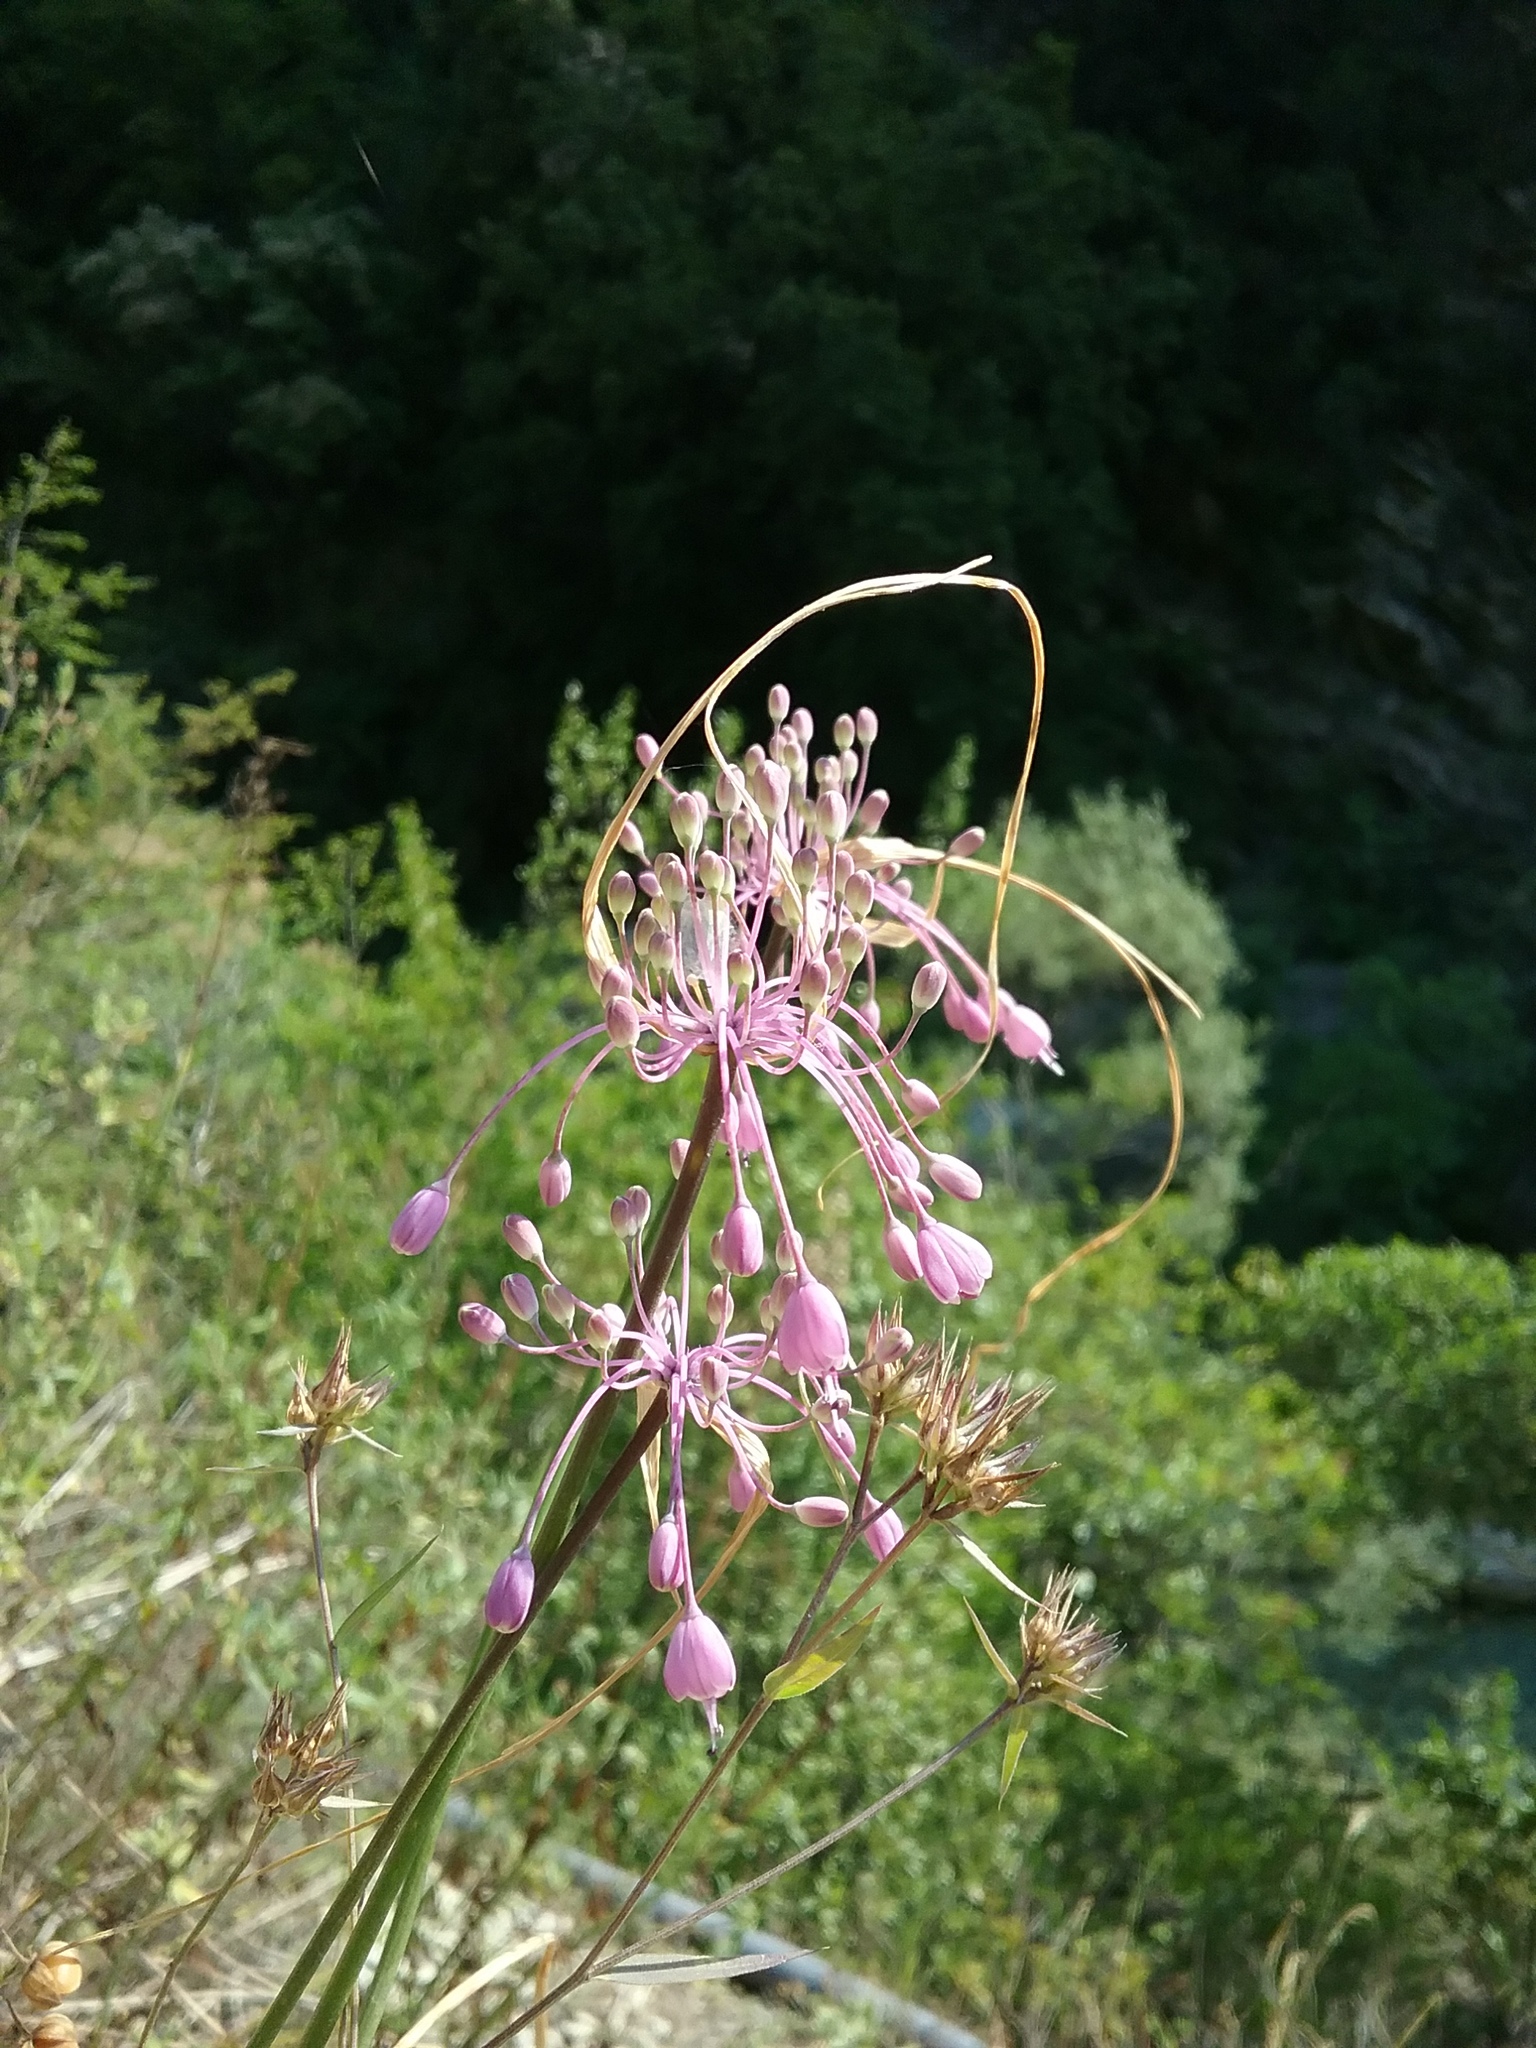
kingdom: Plantae
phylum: Tracheophyta
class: Liliopsida
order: Asparagales
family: Amaryllidaceae
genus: Allium
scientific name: Allium coloratum
